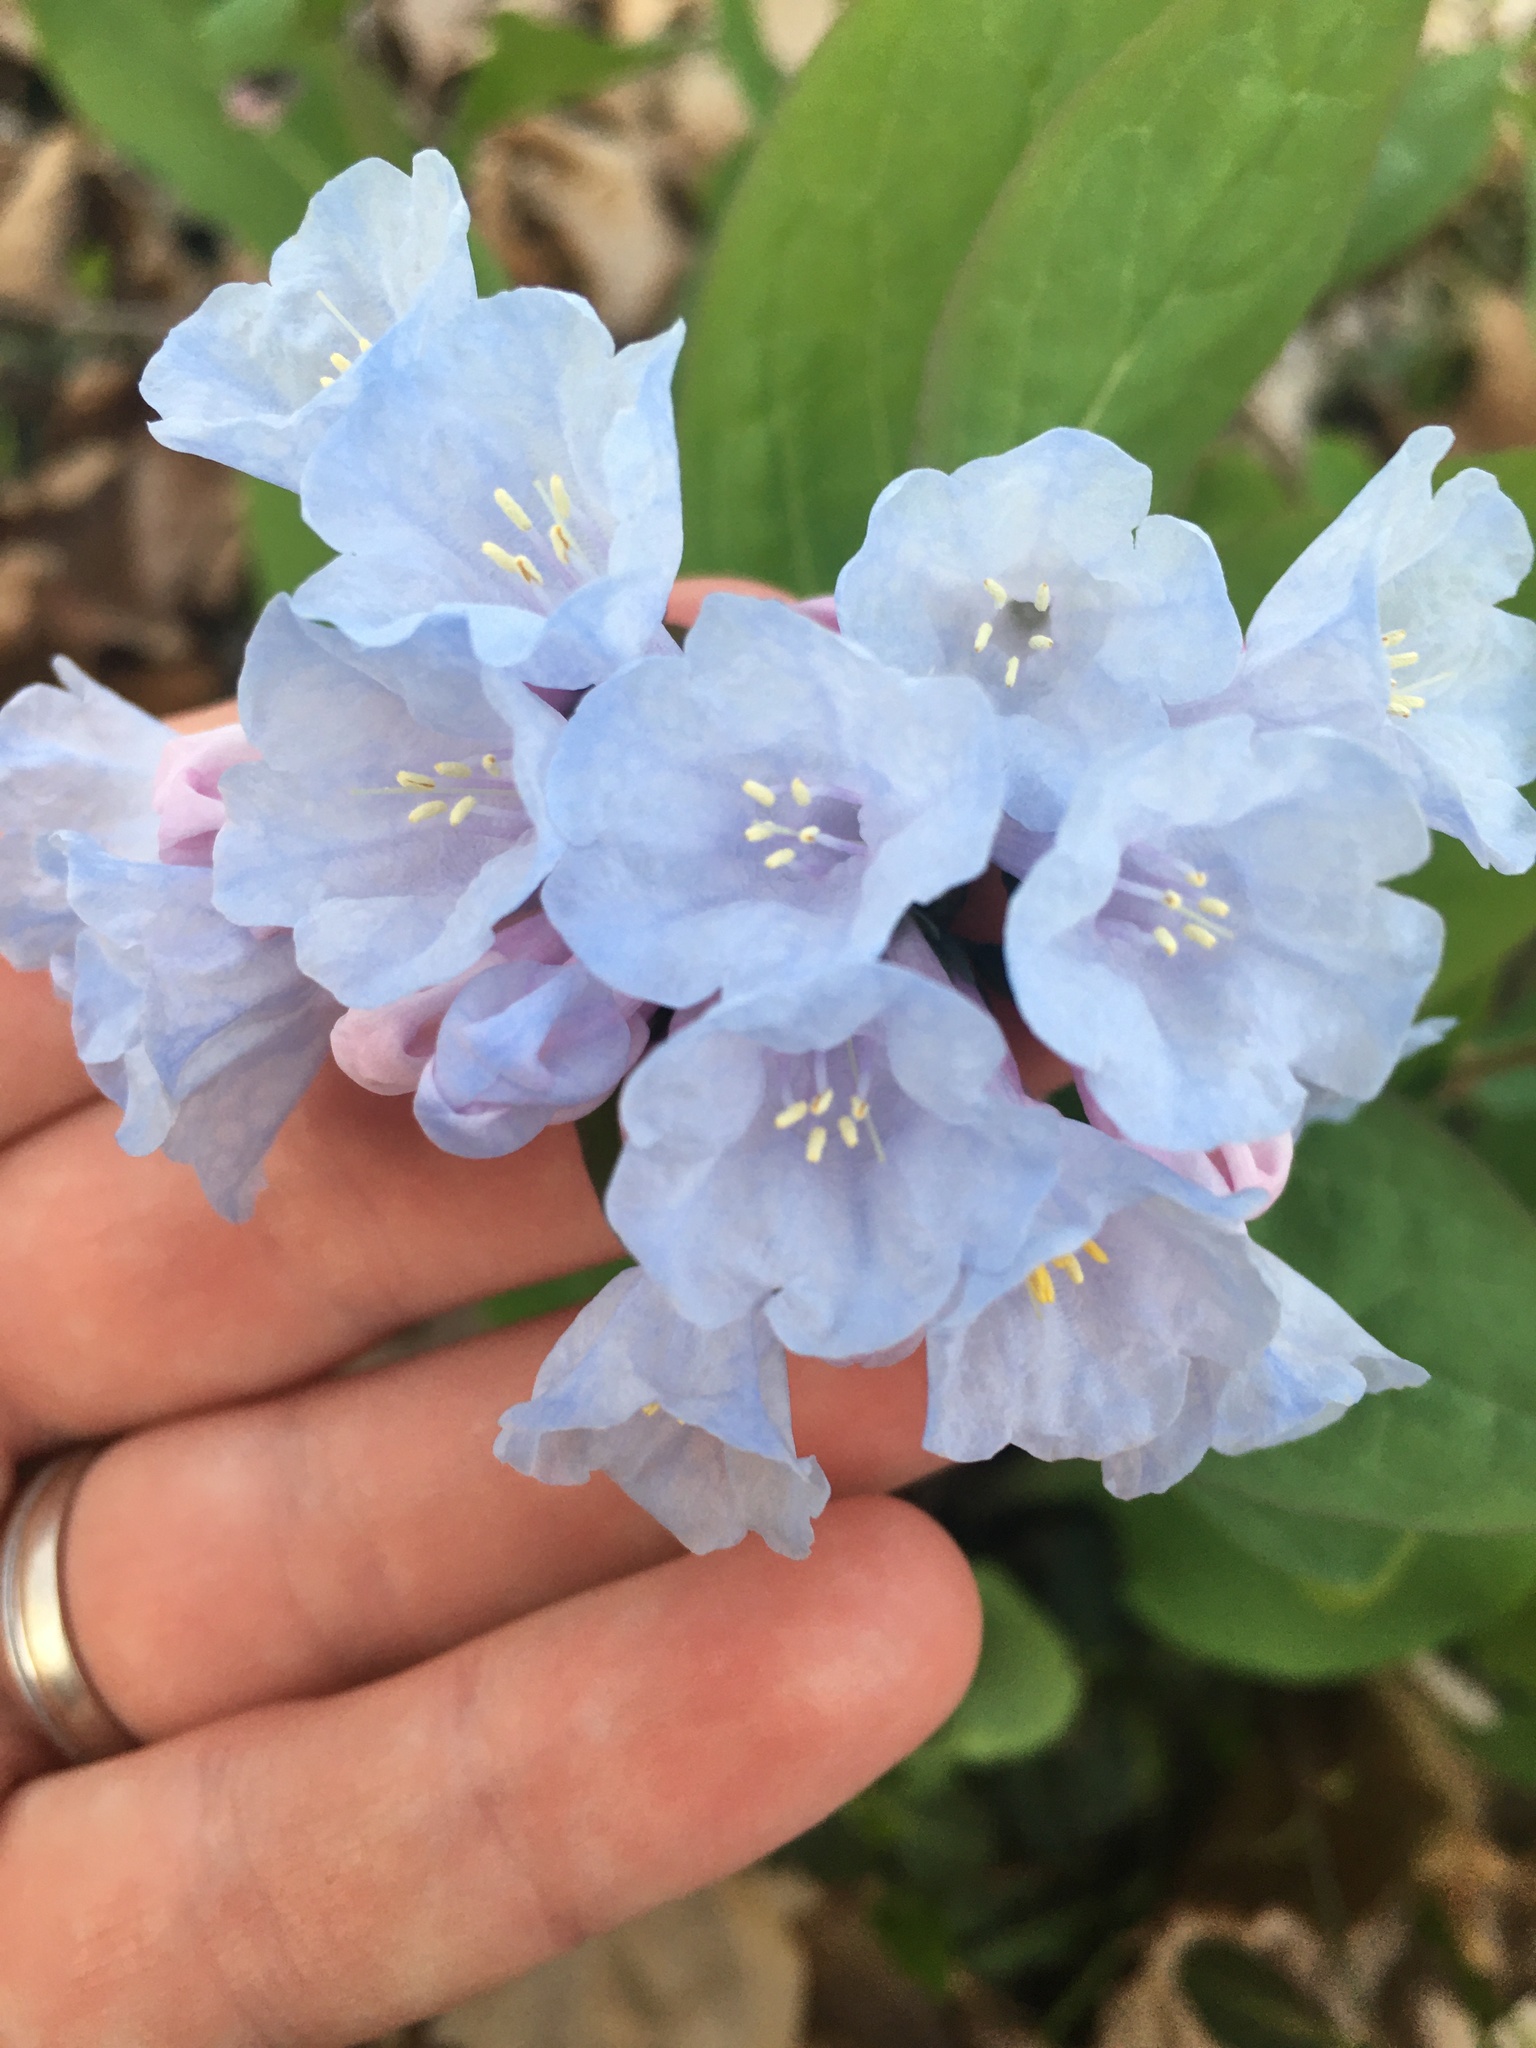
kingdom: Plantae
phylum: Tracheophyta
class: Magnoliopsida
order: Boraginales
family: Boraginaceae
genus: Mertensia
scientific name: Mertensia virginica
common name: Virginia bluebells
